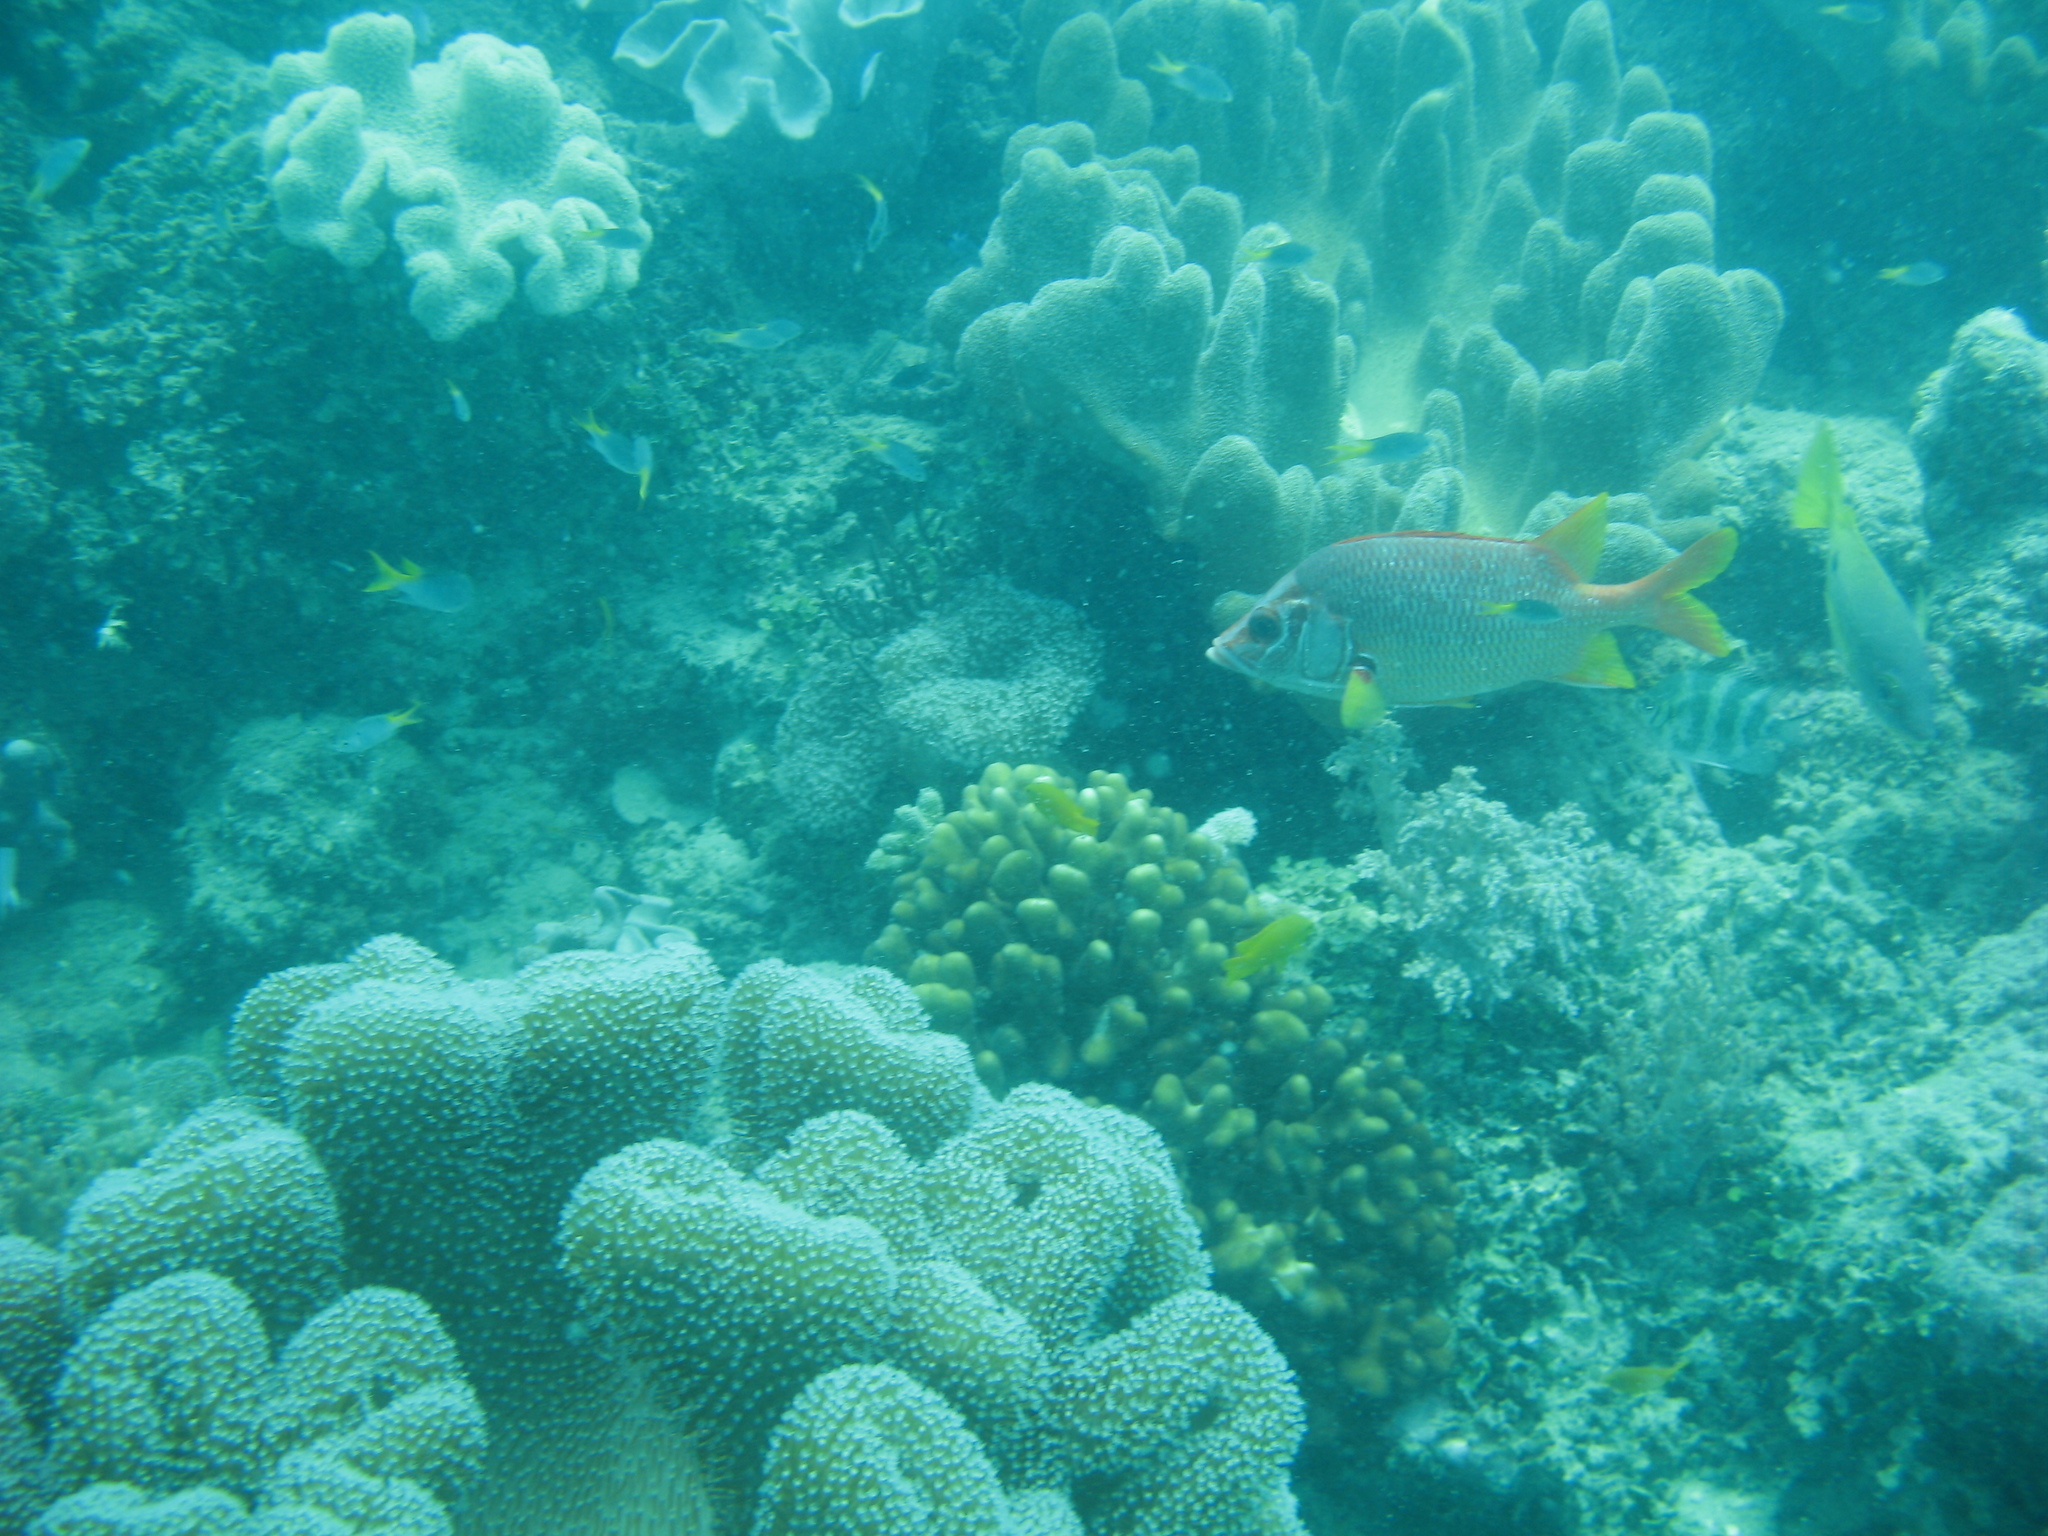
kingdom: Animalia
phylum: Chordata
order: Beryciformes
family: Holocentridae
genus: Sargocentron
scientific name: Sargocentron spiniferum
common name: Giant squirrelfish
